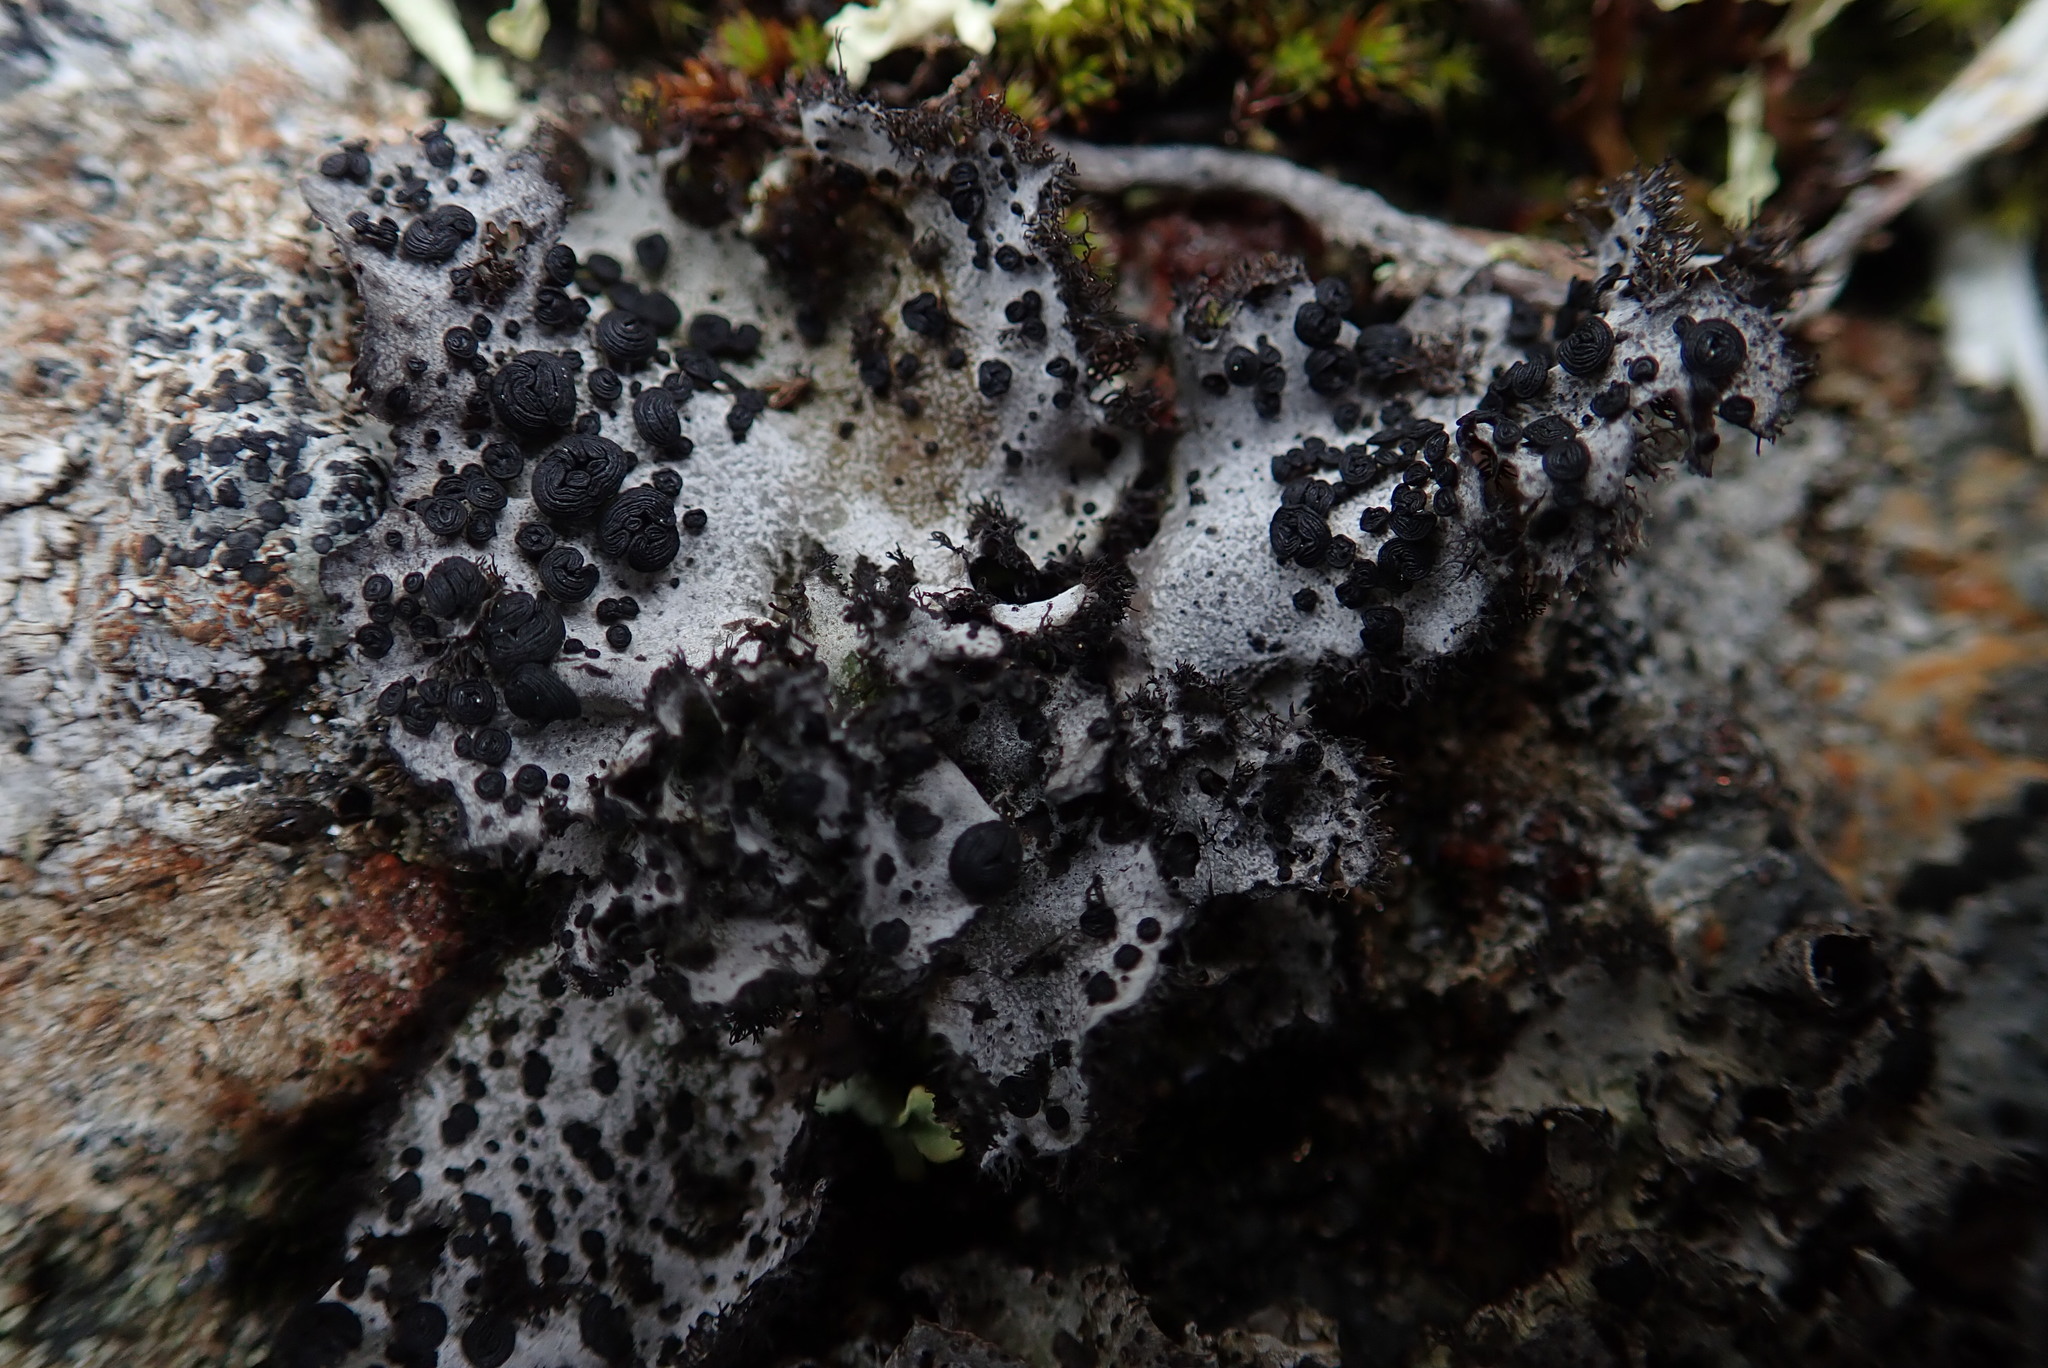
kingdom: Fungi
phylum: Ascomycota
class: Lecanoromycetes
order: Umbilicariales
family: Umbilicariaceae
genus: Umbilicaria
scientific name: Umbilicaria cylindrica
